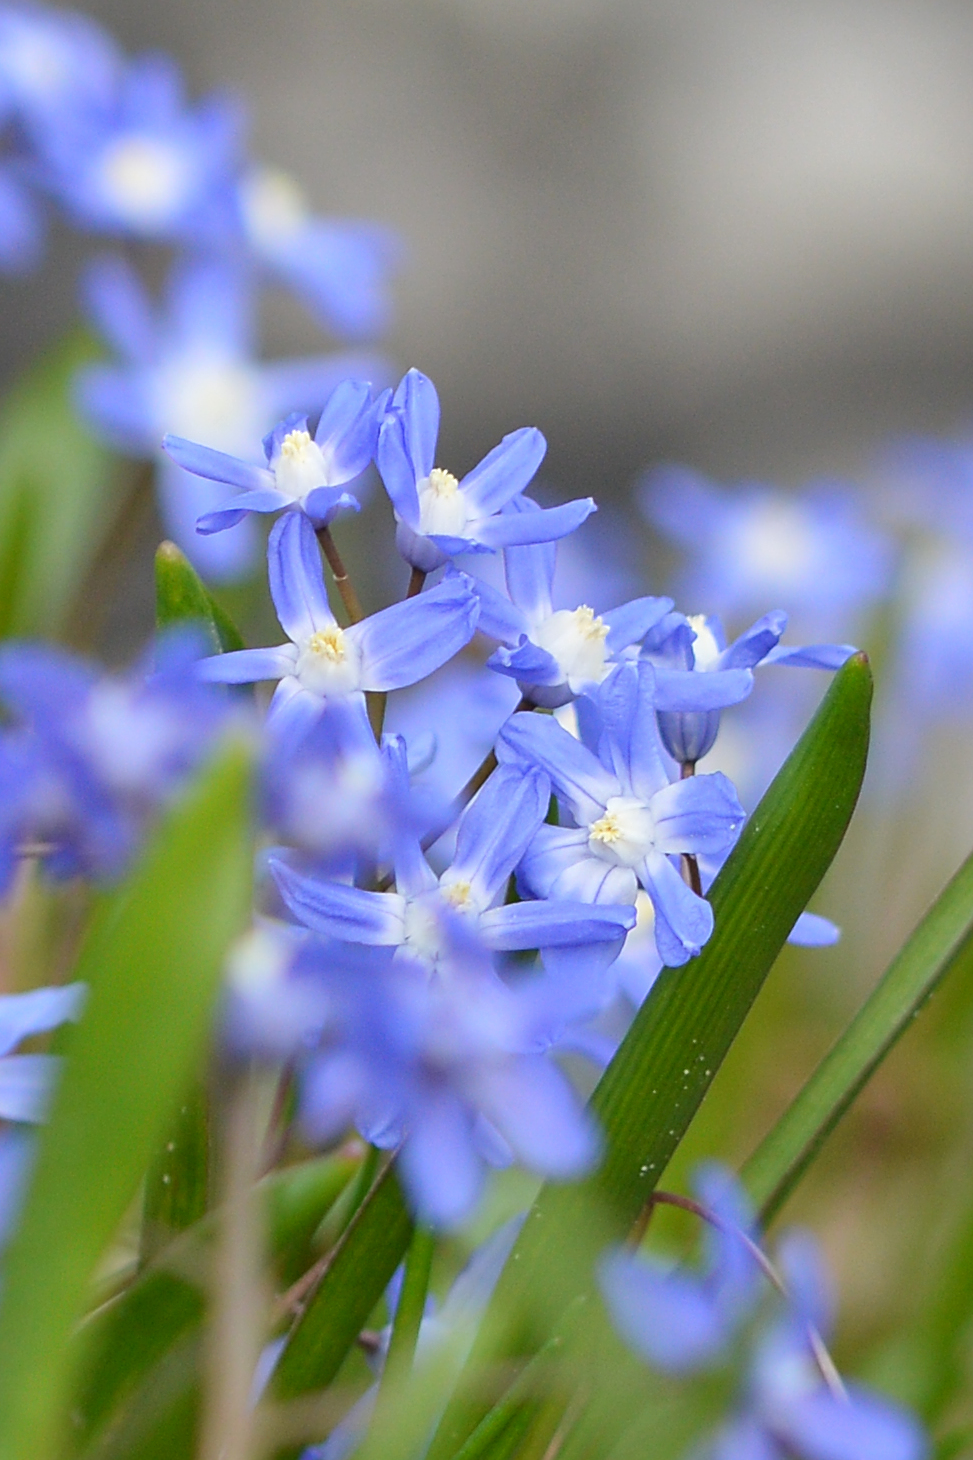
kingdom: Plantae
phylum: Tracheophyta
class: Liliopsida
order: Asparagales
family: Asparagaceae
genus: Scilla
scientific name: Scilla forbesii
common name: Glory-of-the-snow
